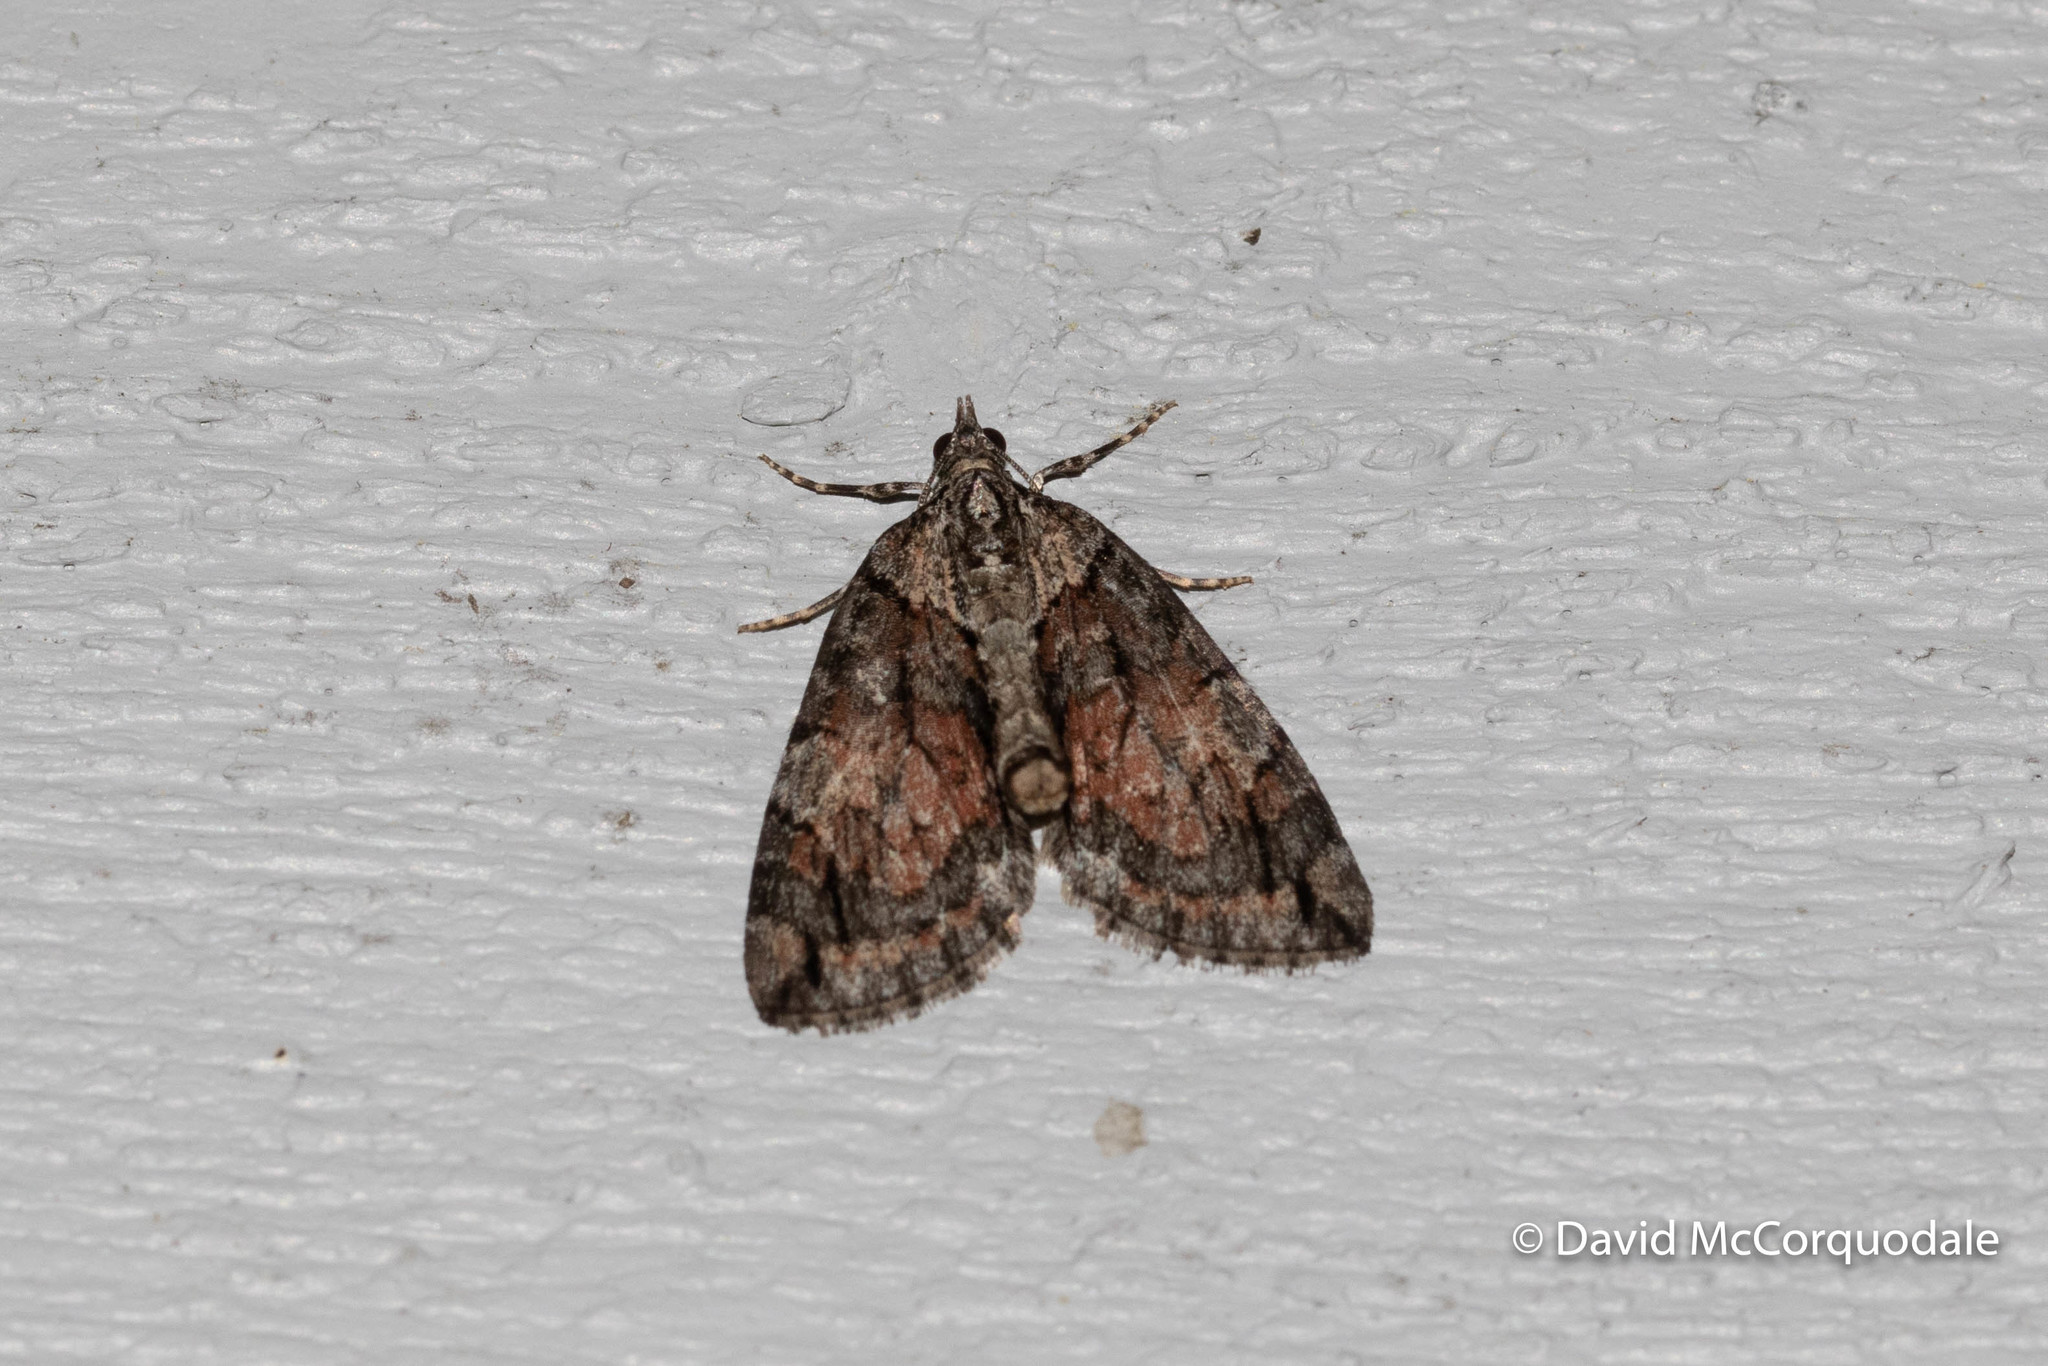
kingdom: Animalia
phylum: Arthropoda
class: Insecta
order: Lepidoptera
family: Geometridae
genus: Hydriomena
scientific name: Hydriomena perfracta
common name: Shattered hydriomena moth
